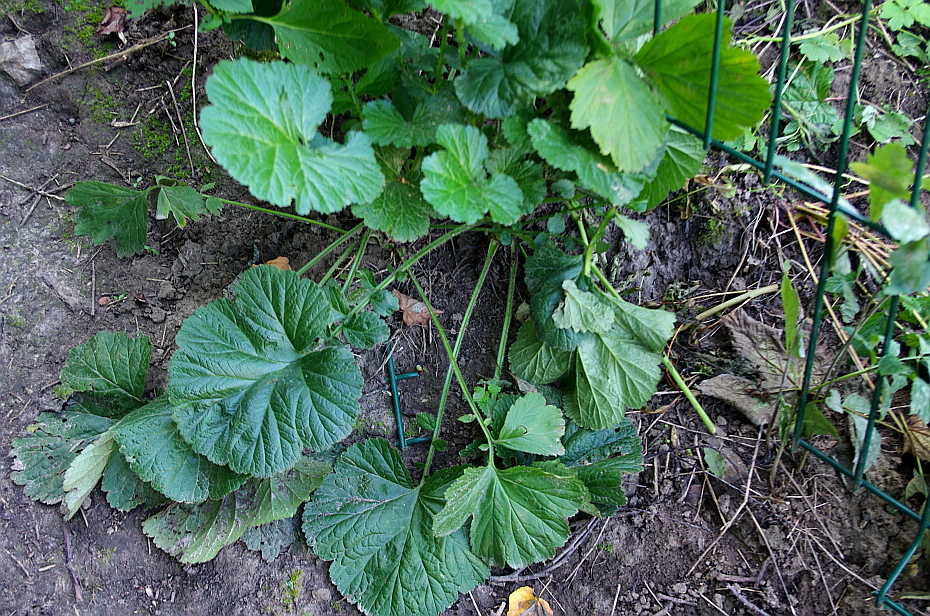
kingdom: Plantae
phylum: Tracheophyta
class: Magnoliopsida
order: Rosales
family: Rosaceae
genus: Geum
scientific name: Geum
